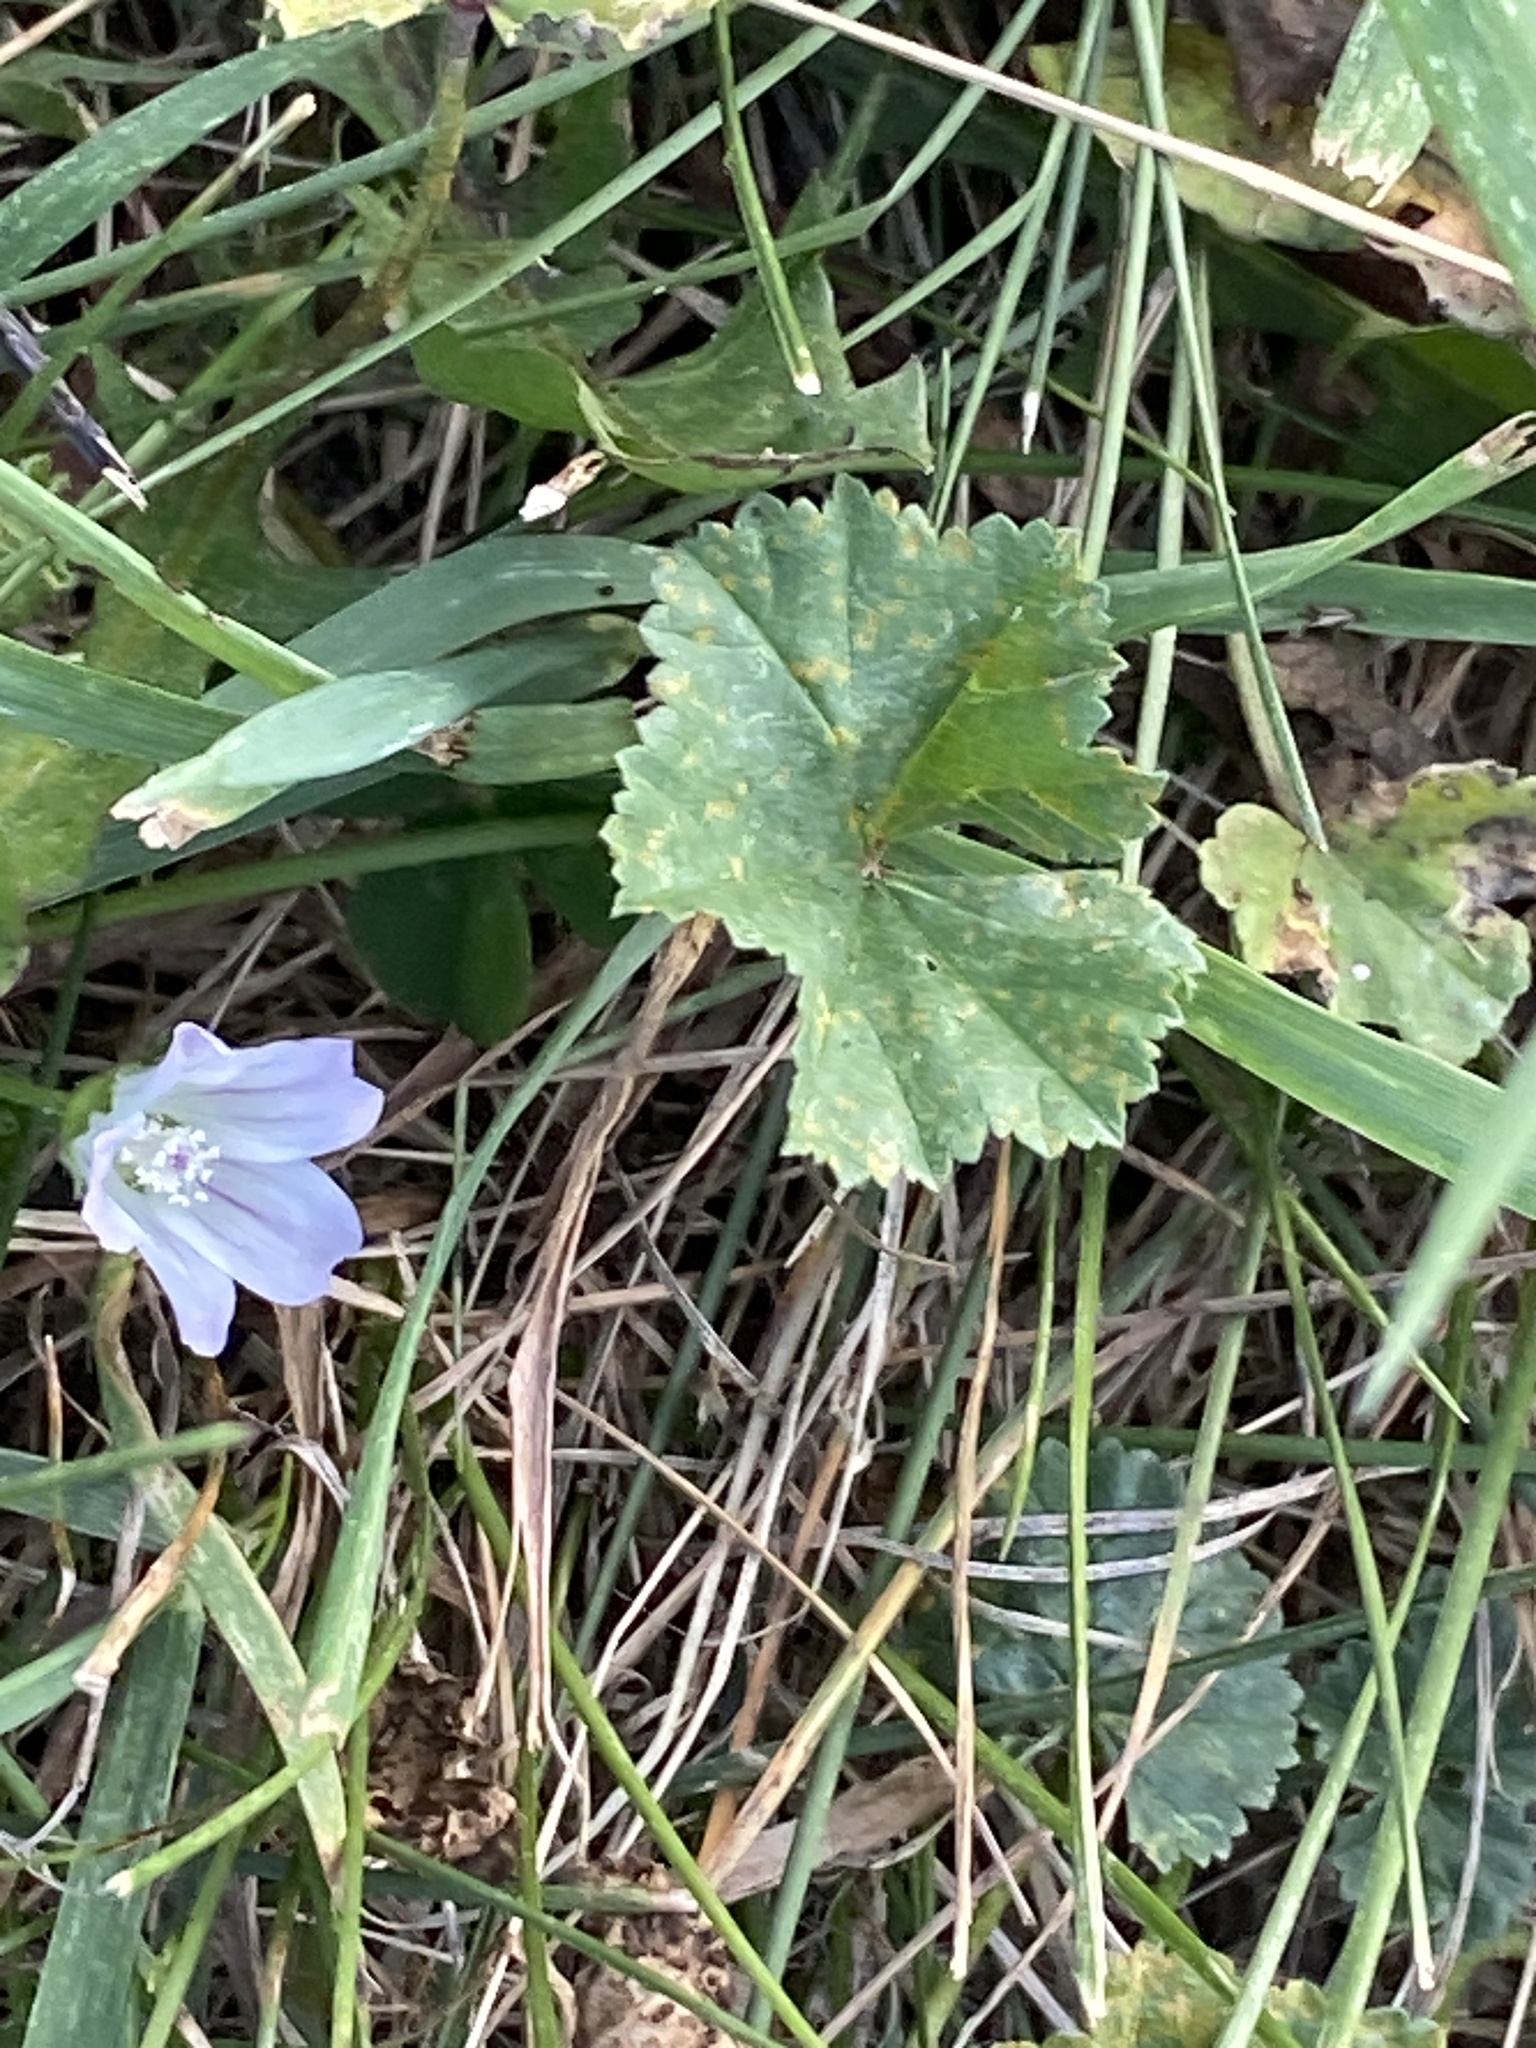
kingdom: Plantae
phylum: Tracheophyta
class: Magnoliopsida
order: Malvales
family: Malvaceae
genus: Malva
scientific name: Malva neglecta
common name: Common mallow
